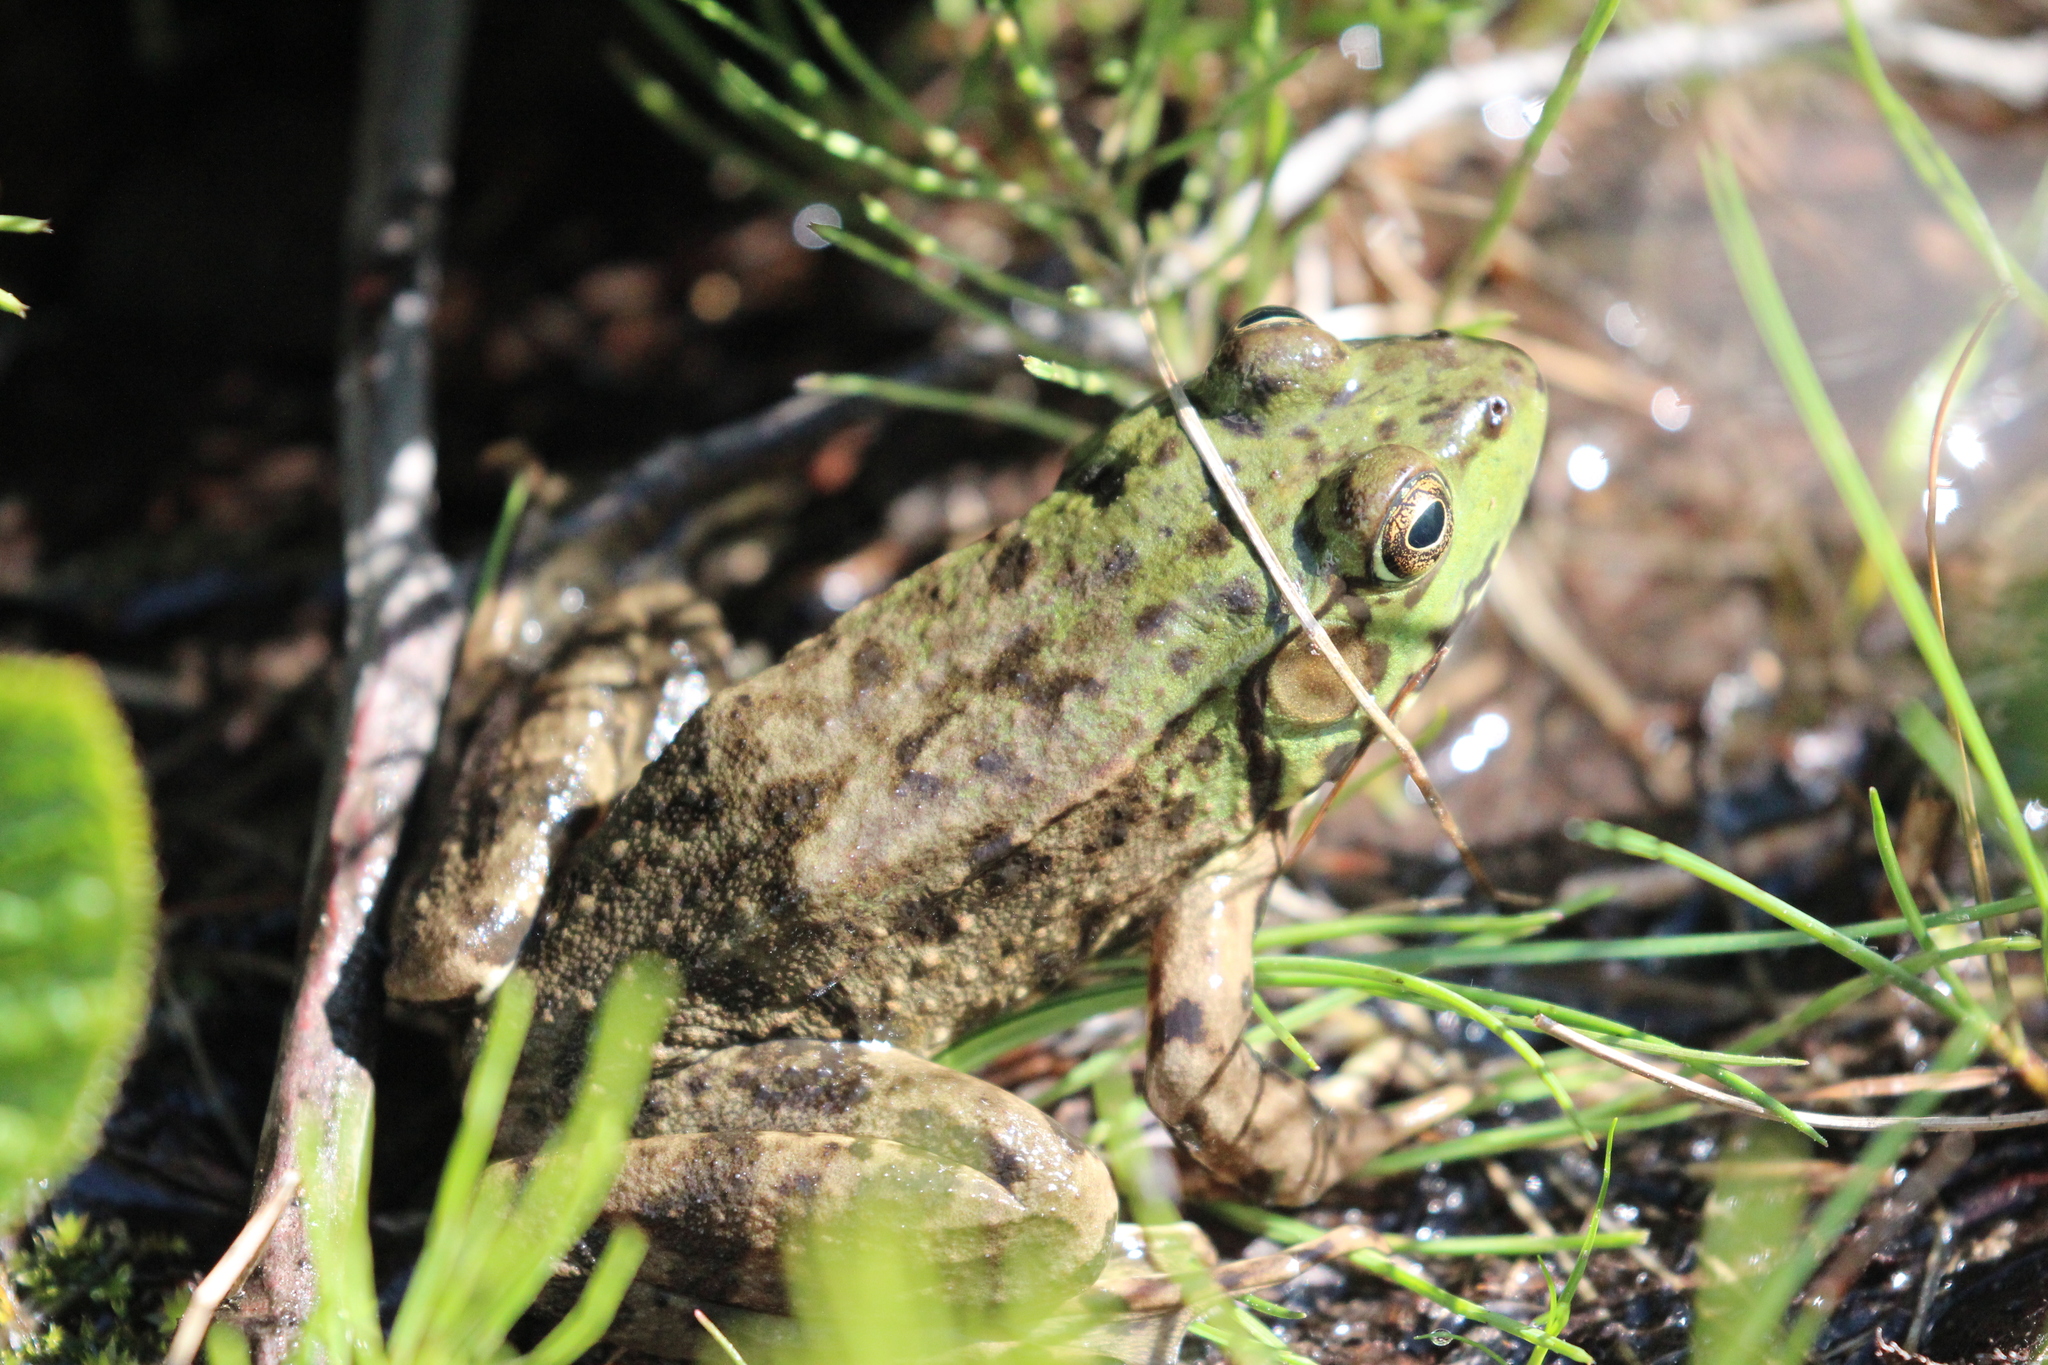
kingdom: Animalia
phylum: Chordata
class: Amphibia
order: Anura
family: Ranidae
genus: Lithobates
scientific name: Lithobates clamitans
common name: Green frog
